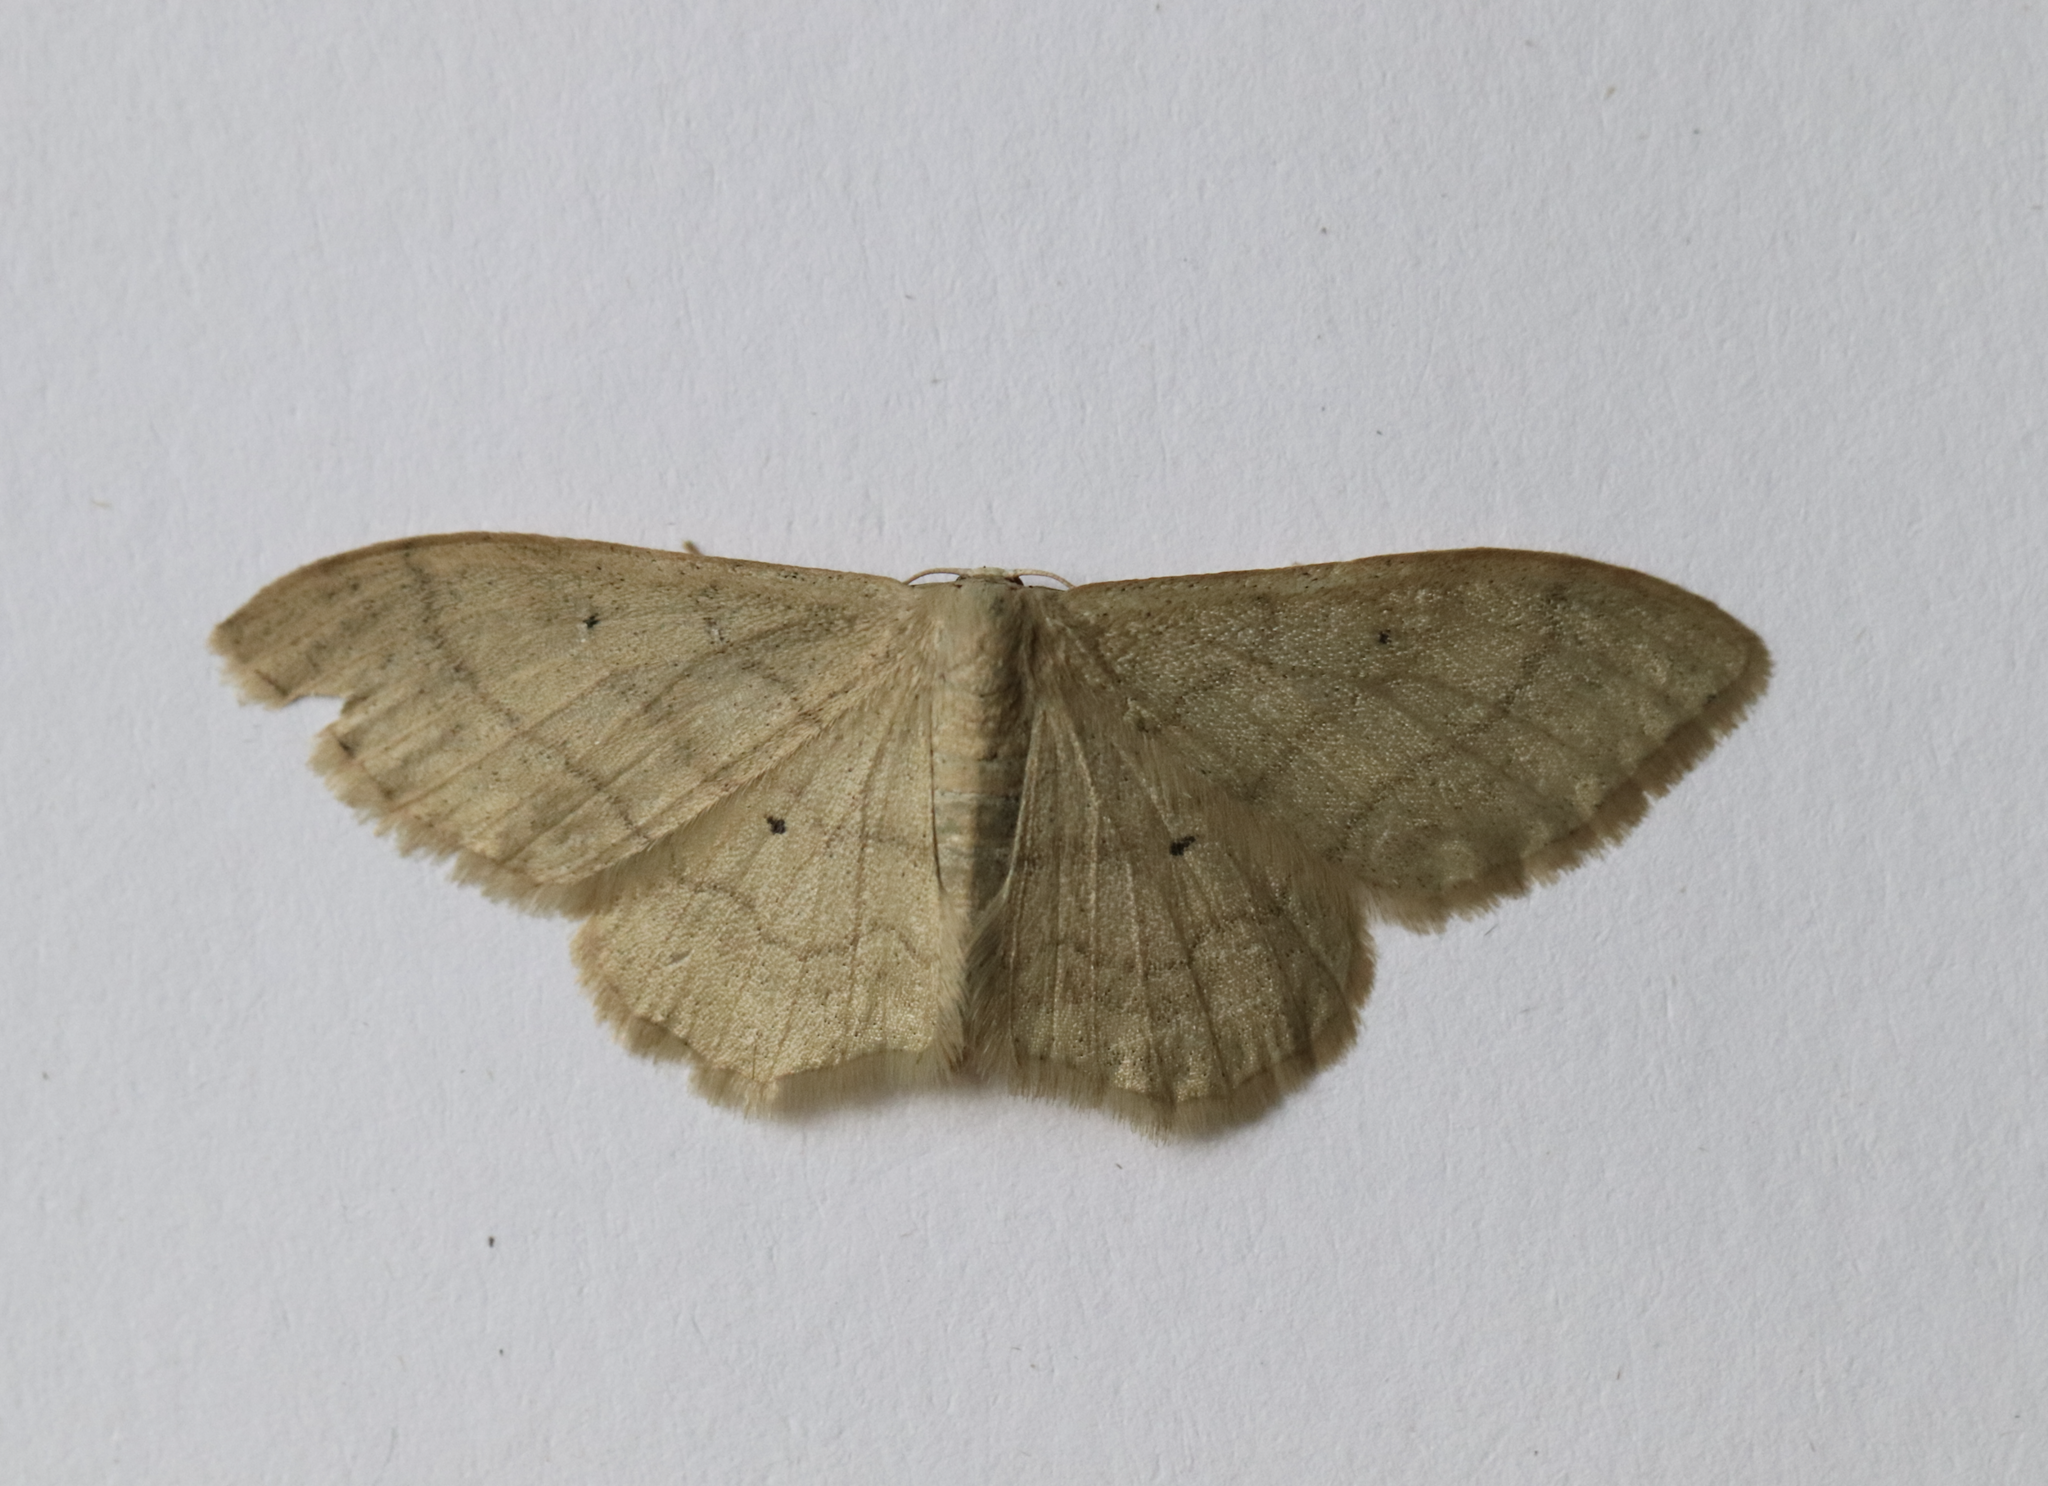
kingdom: Animalia
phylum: Arthropoda
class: Insecta
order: Lepidoptera
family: Geometridae
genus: Idaea
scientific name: Idaea straminata
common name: Plain wave
